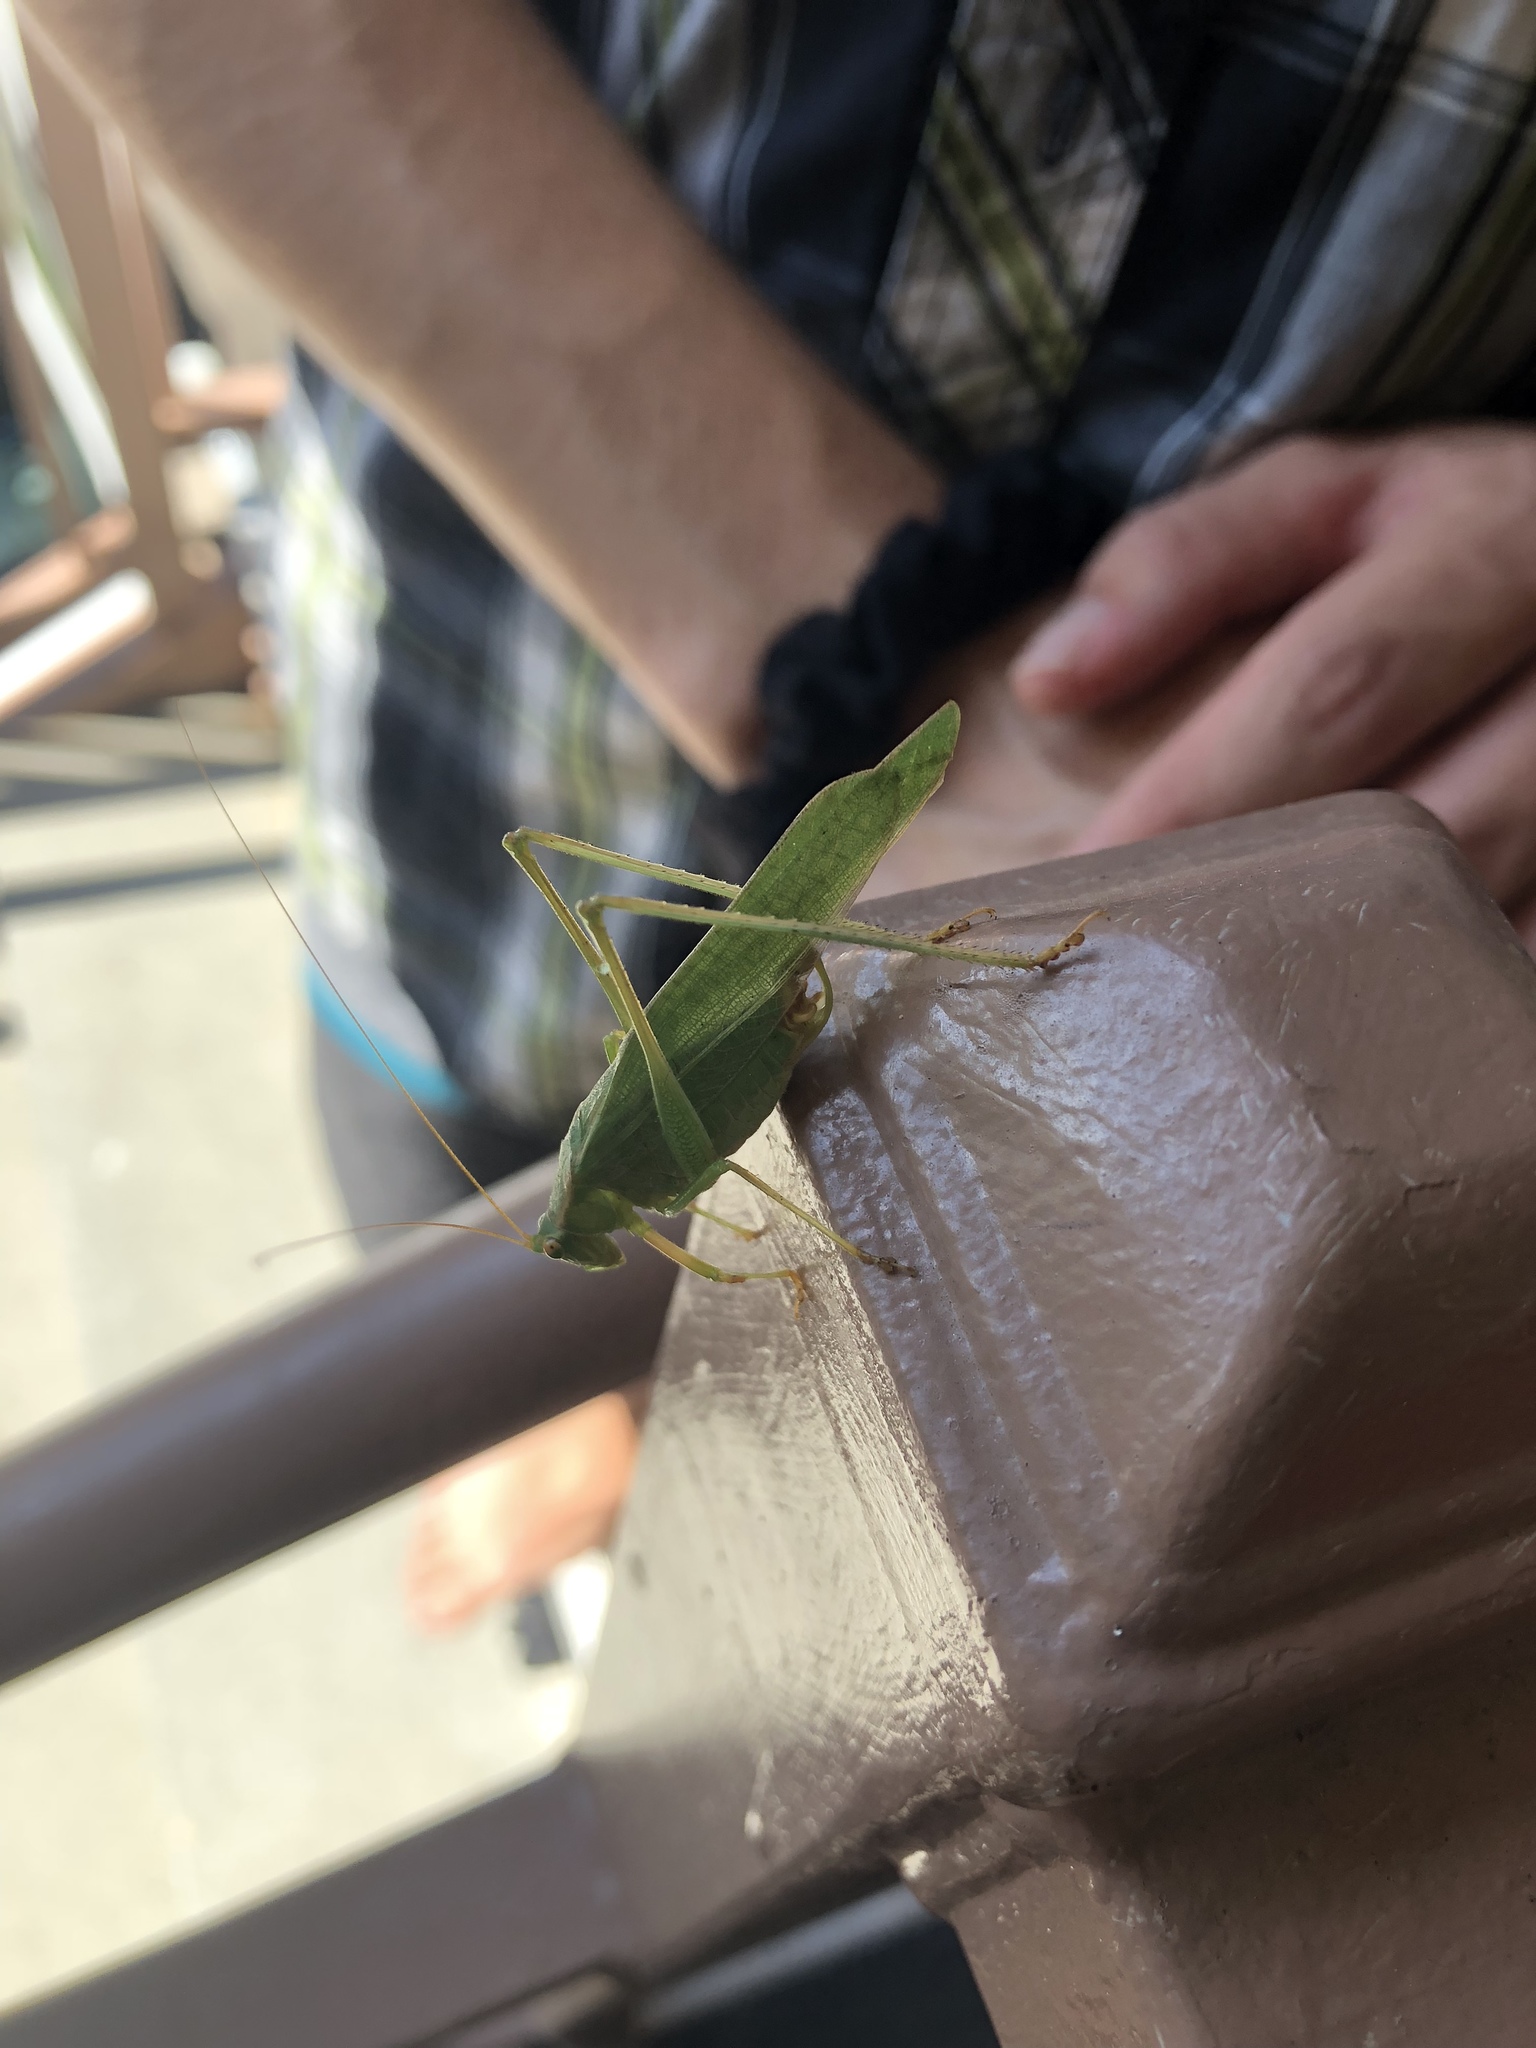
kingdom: Animalia
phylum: Arthropoda
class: Insecta
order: Orthoptera
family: Tettigoniidae
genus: Scudderia
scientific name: Scudderia furcata
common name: Fork-tailed bush katydid
